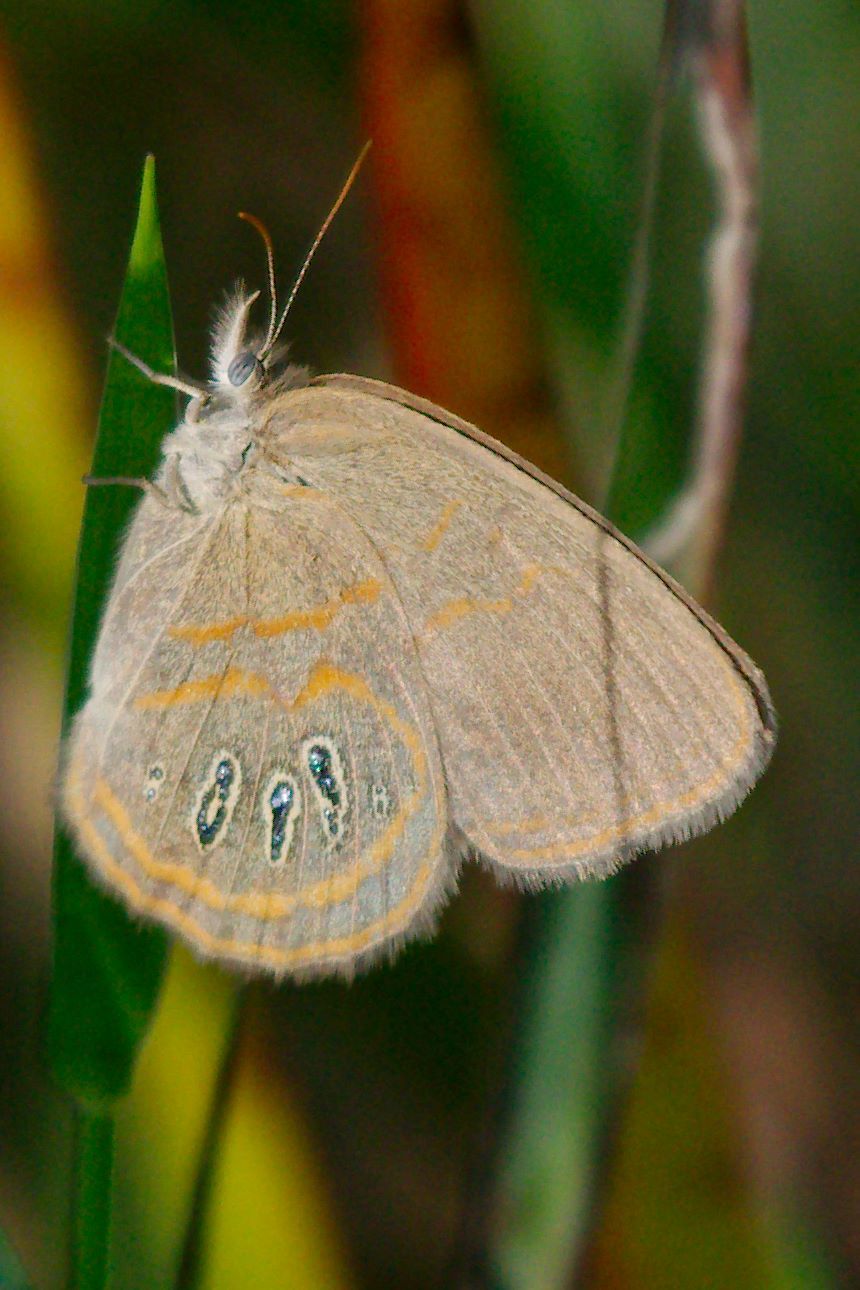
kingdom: Animalia
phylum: Arthropoda
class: Insecta
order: Lepidoptera
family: Nymphalidae
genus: Euptychia
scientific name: Euptychia phocion
